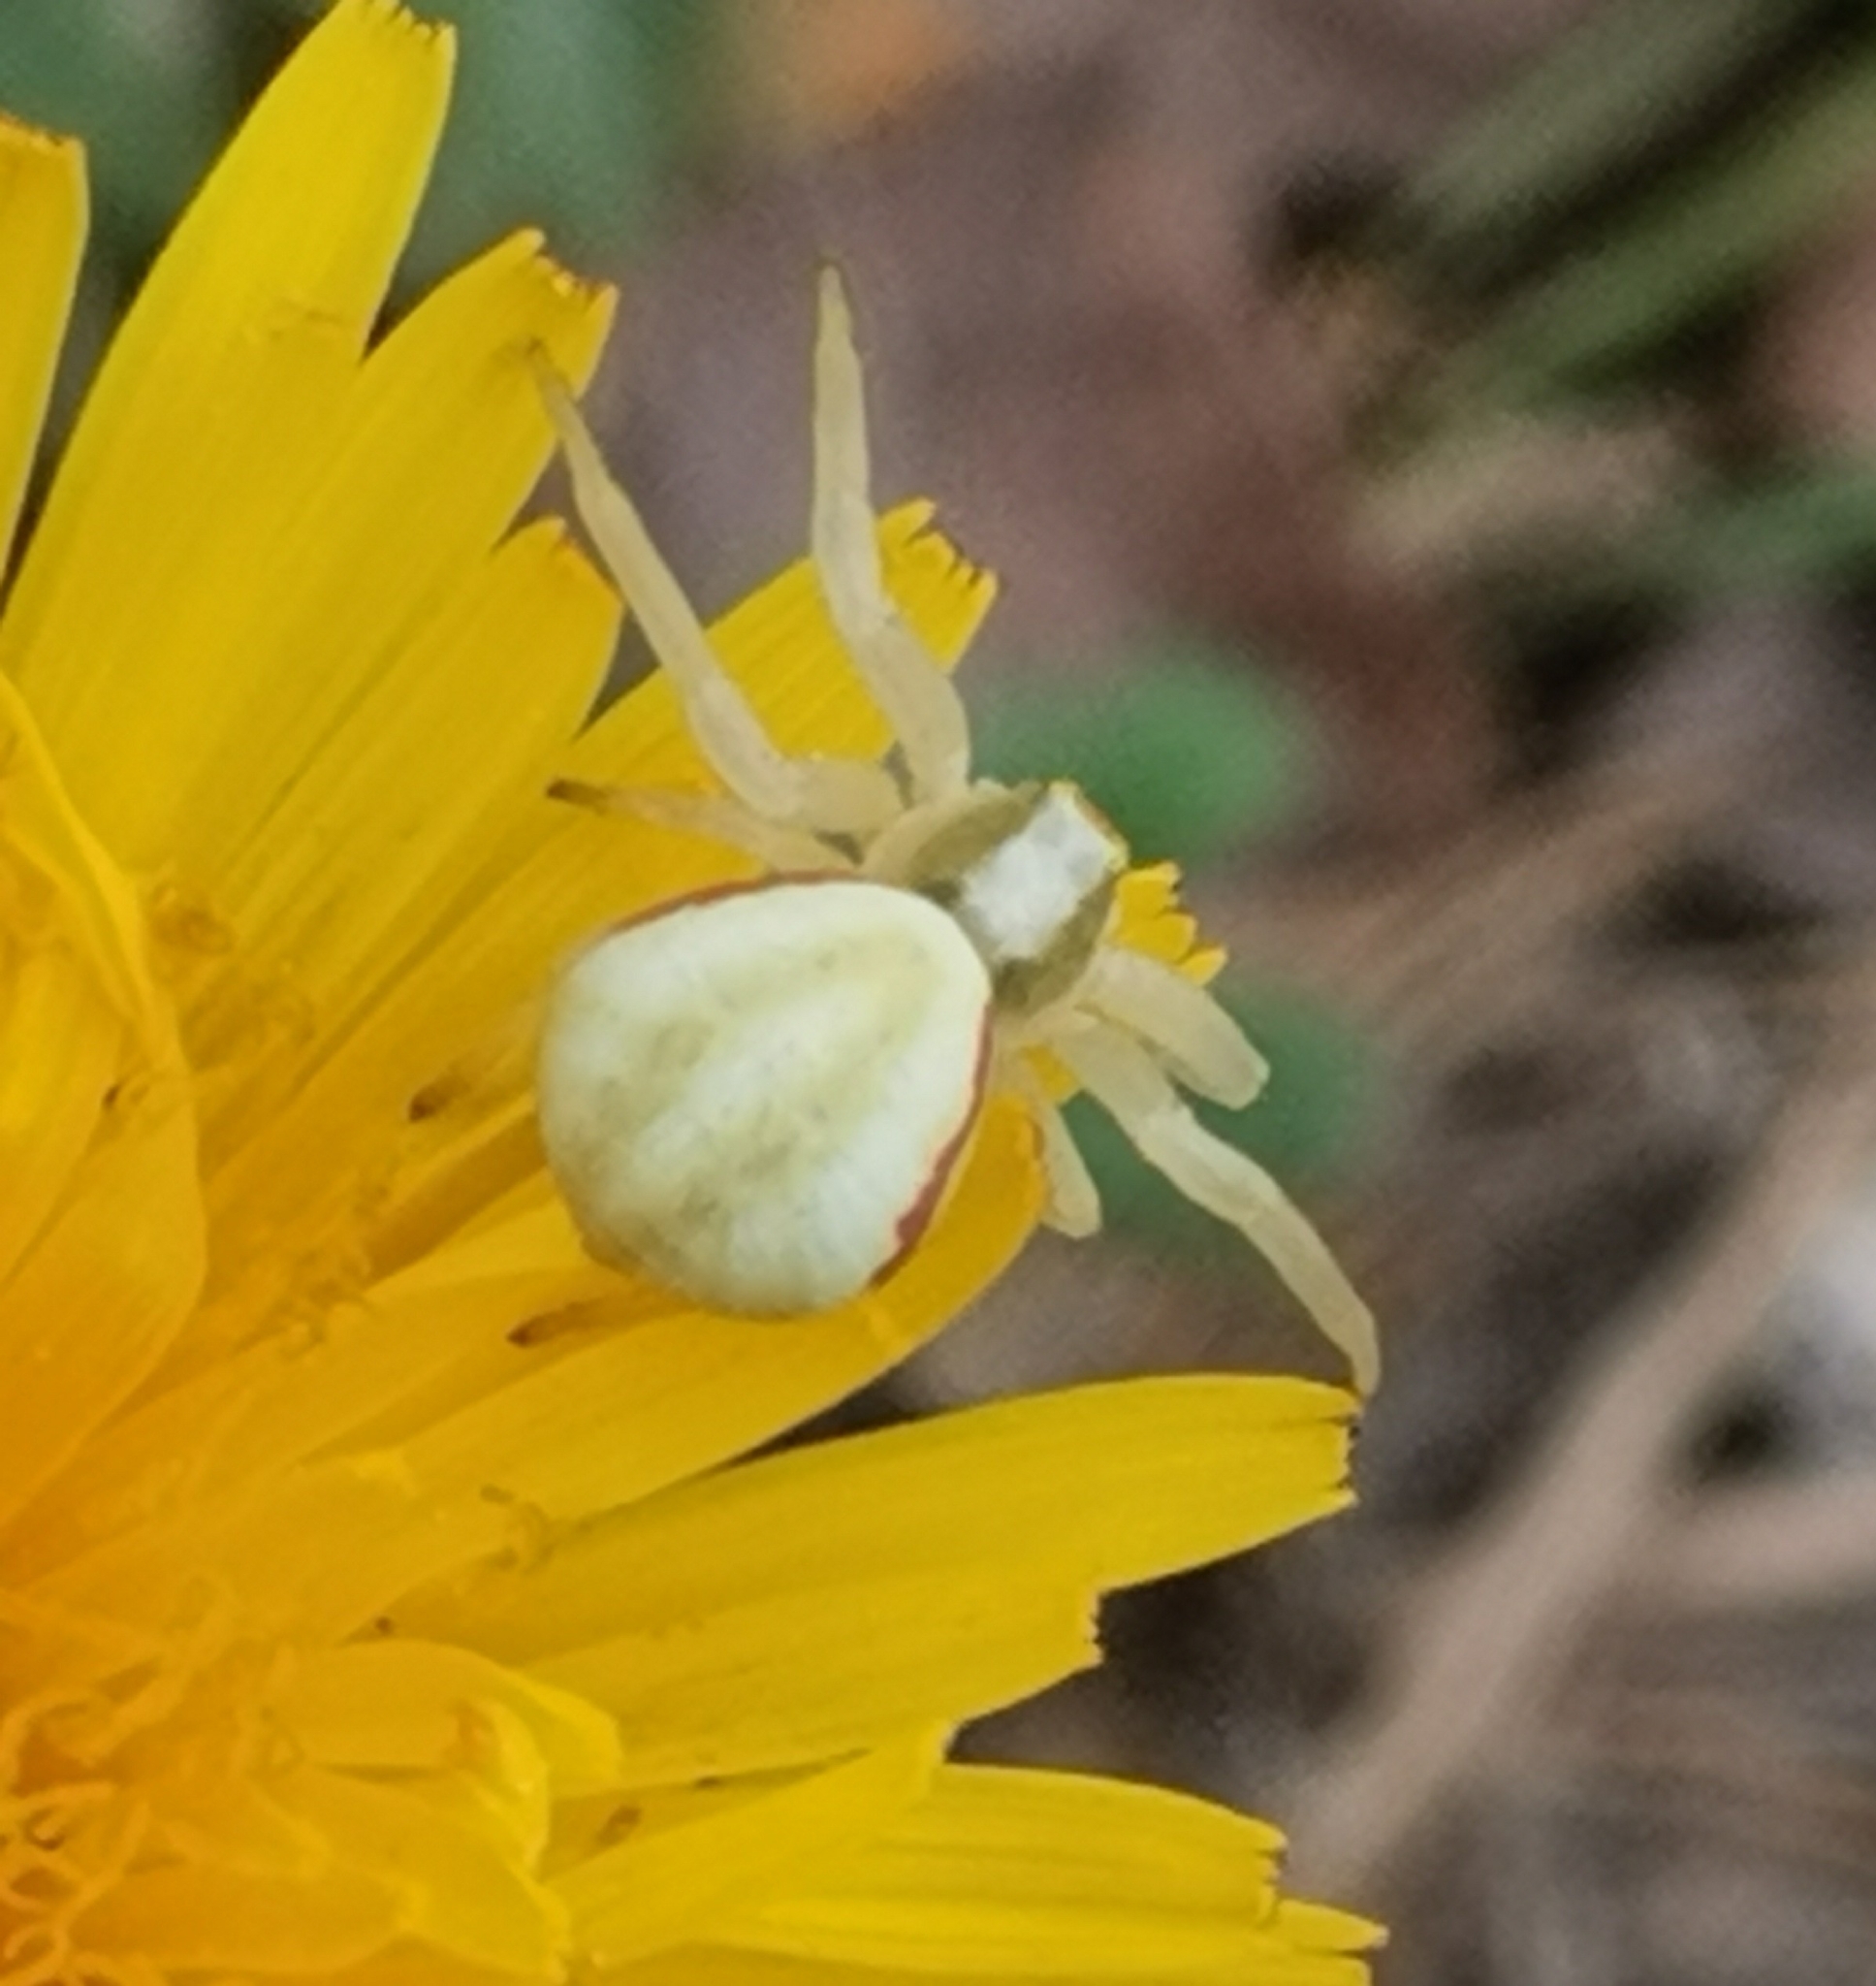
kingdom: Animalia
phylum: Arthropoda
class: Arachnida
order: Araneae
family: Thomisidae
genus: Misumena
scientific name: Misumena vatia
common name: Goldenrod crab spider
